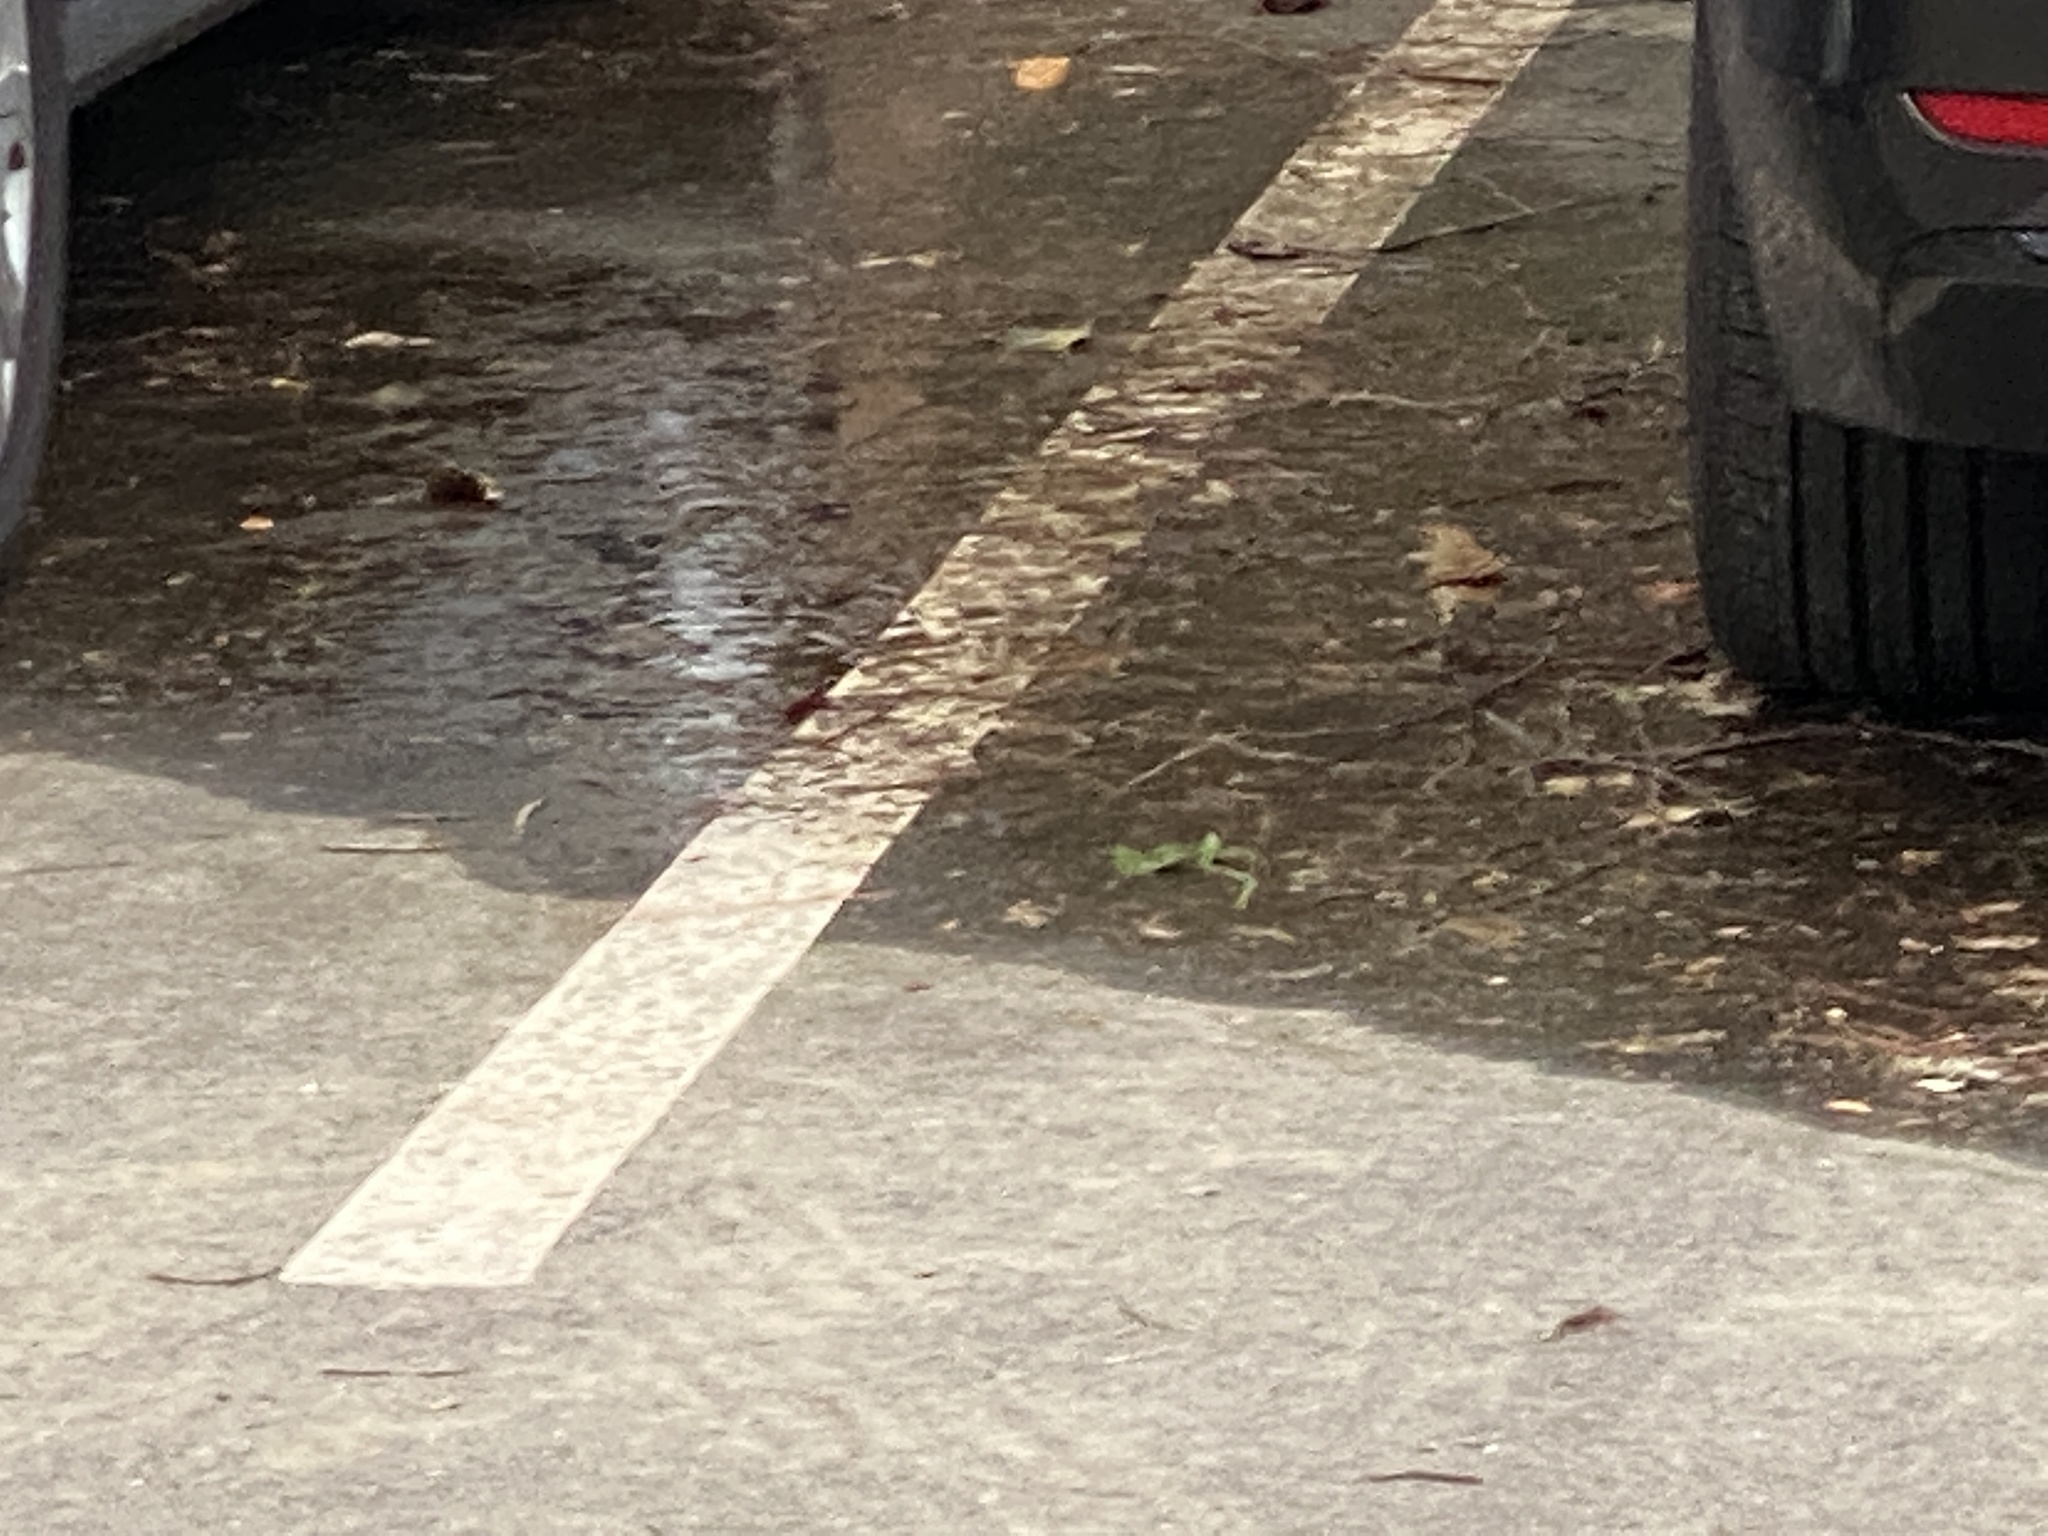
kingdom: Animalia
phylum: Chordata
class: Aves
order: Passeriformes
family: Turdidae
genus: Catharus
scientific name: Catharus guttatus
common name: Hermit thrush
